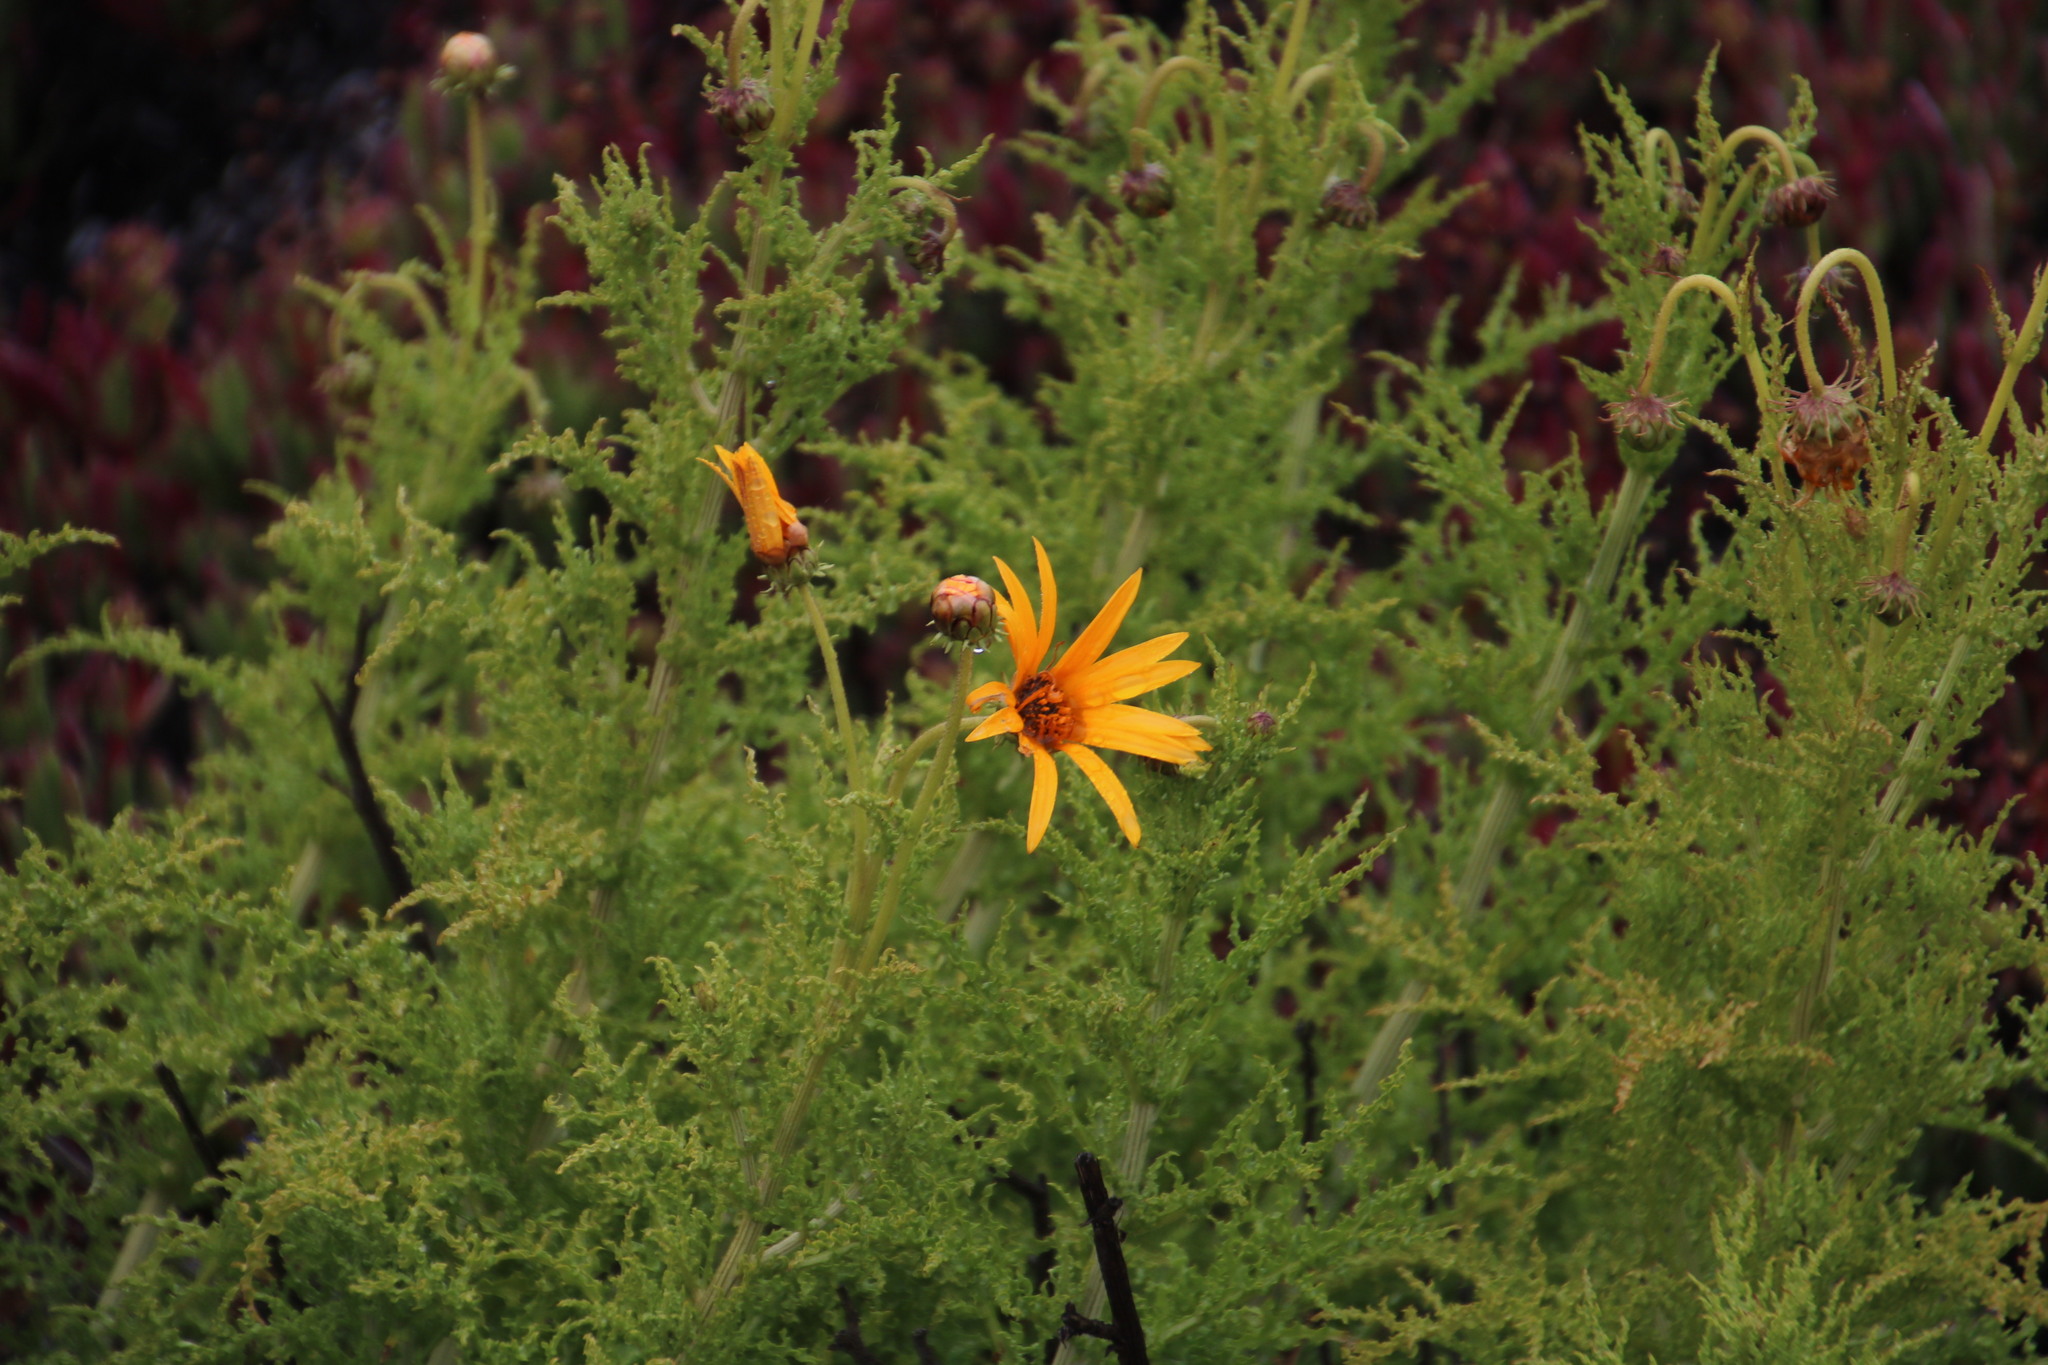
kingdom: Plantae
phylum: Tracheophyta
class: Magnoliopsida
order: Asterales
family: Asteraceae
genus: Arctotis
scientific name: Arctotis laciniata
